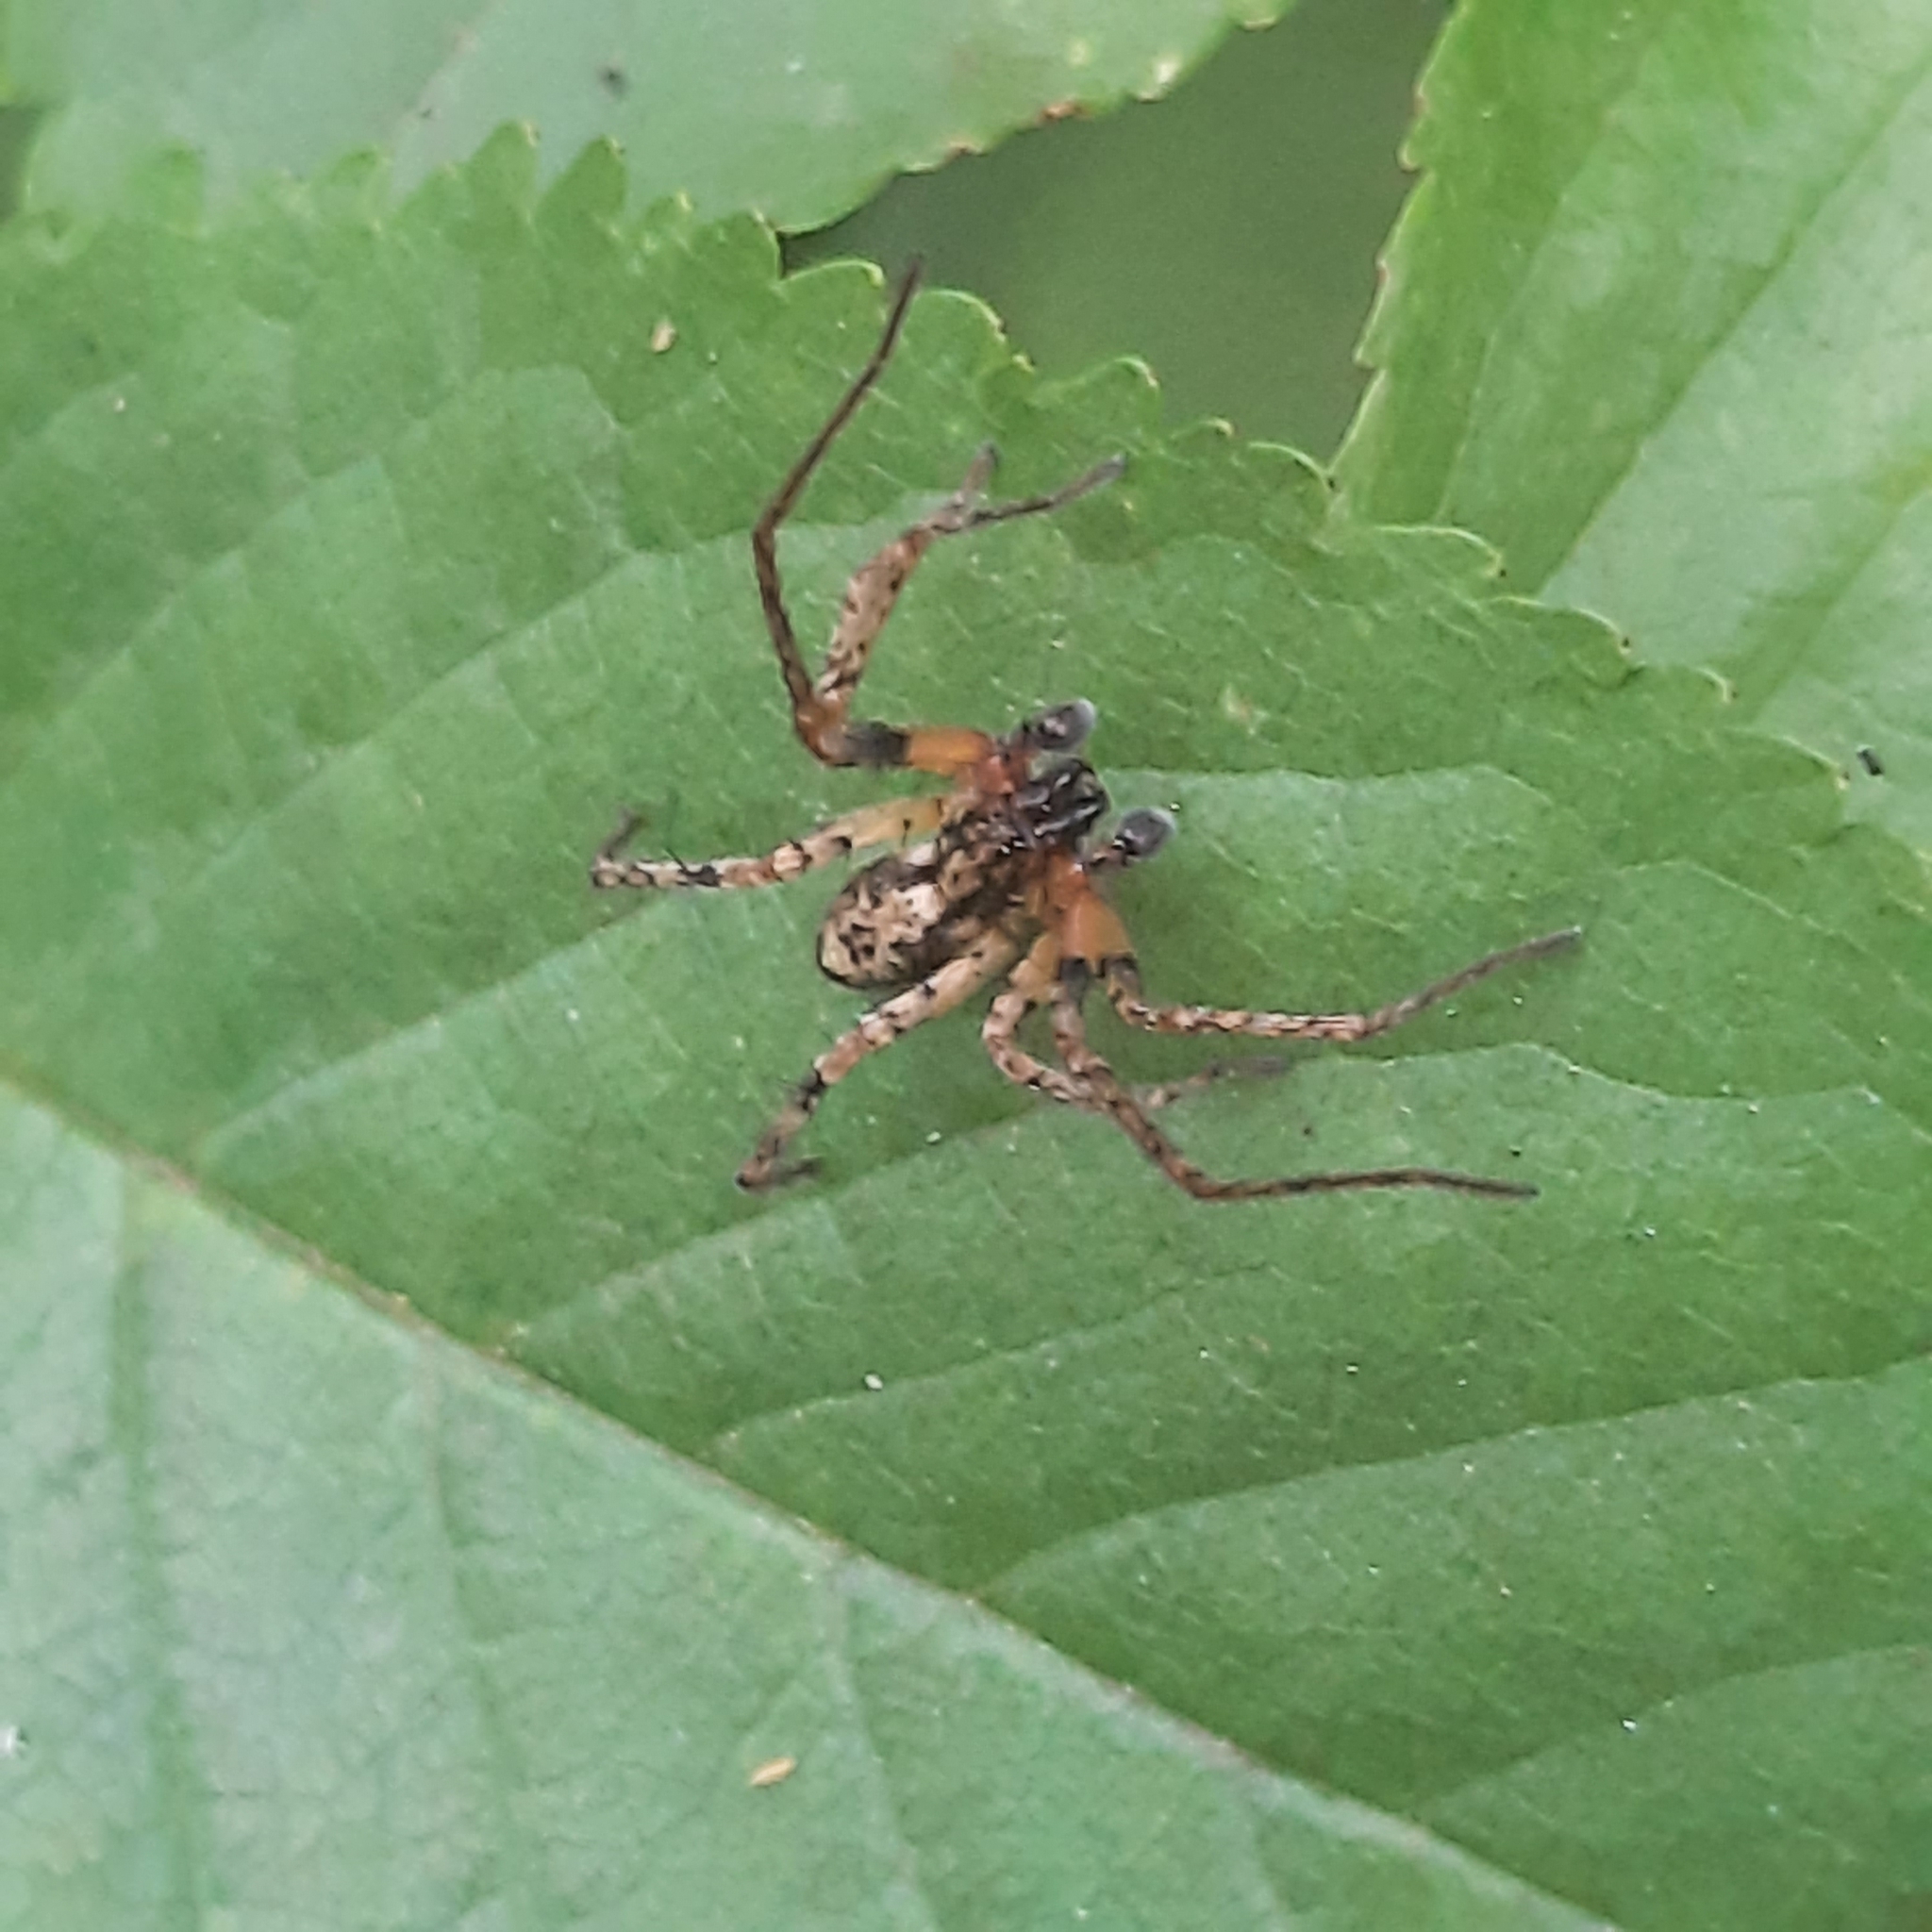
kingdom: Animalia
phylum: Arthropoda
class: Arachnida
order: Araneae
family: Anyphaenidae
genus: Anyphaena
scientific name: Anyphaena accentuata
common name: Buzzing spider
